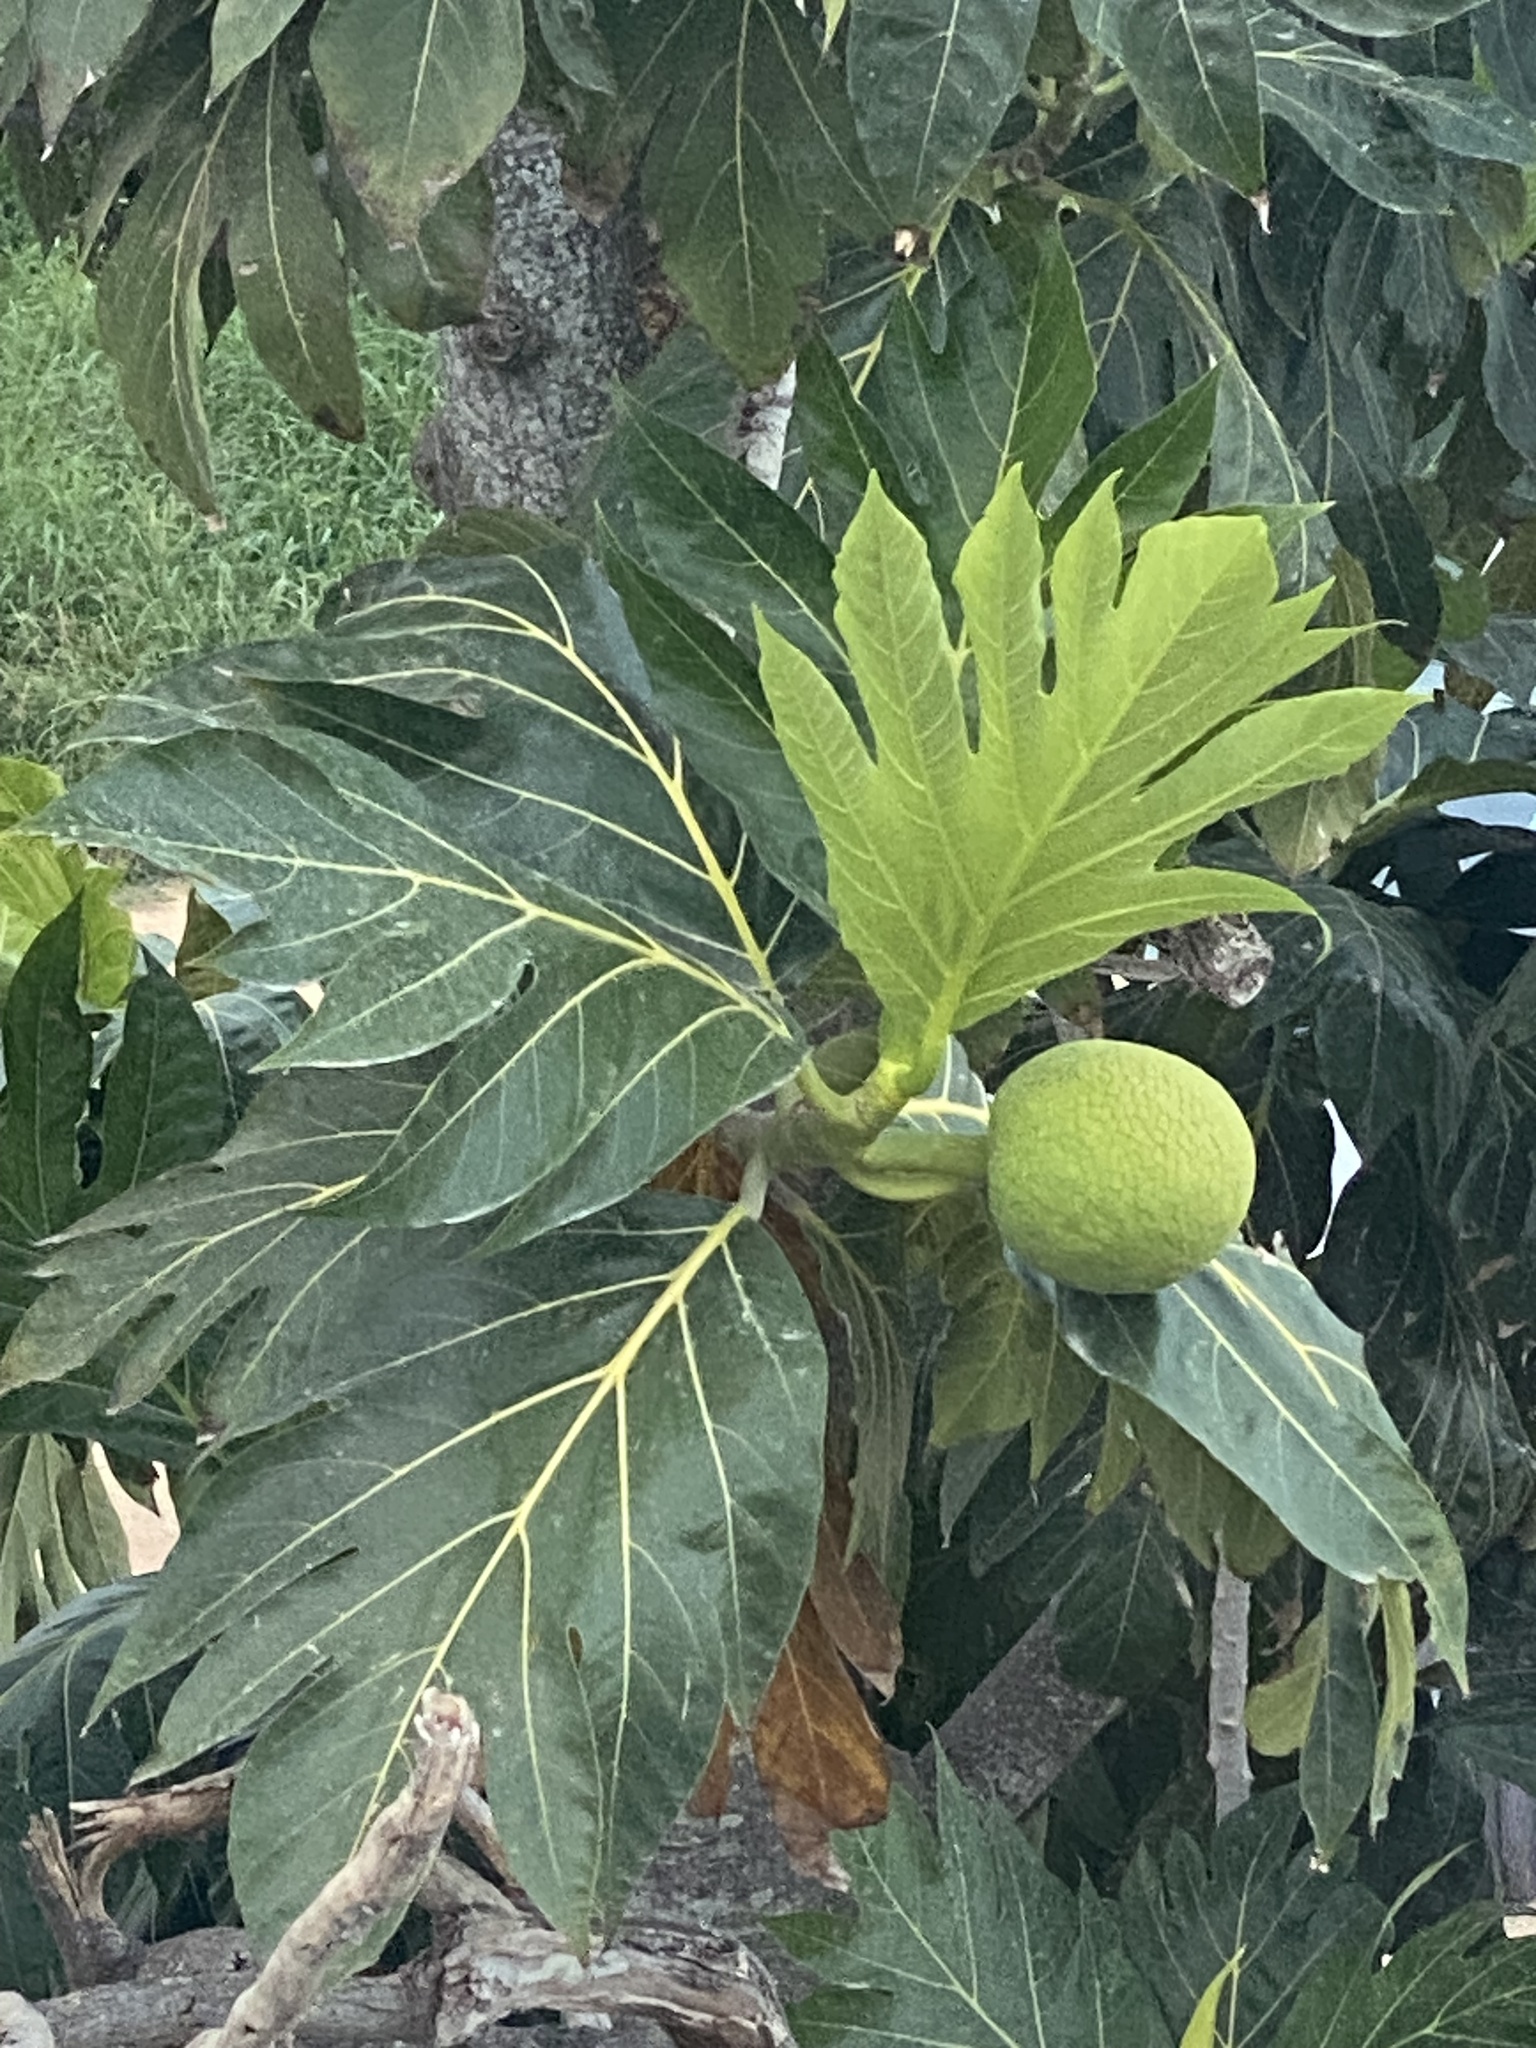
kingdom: Plantae
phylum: Tracheophyta
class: Magnoliopsida
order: Rosales
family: Moraceae
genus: Artocarpus
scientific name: Artocarpus altilis
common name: Breadfruit
